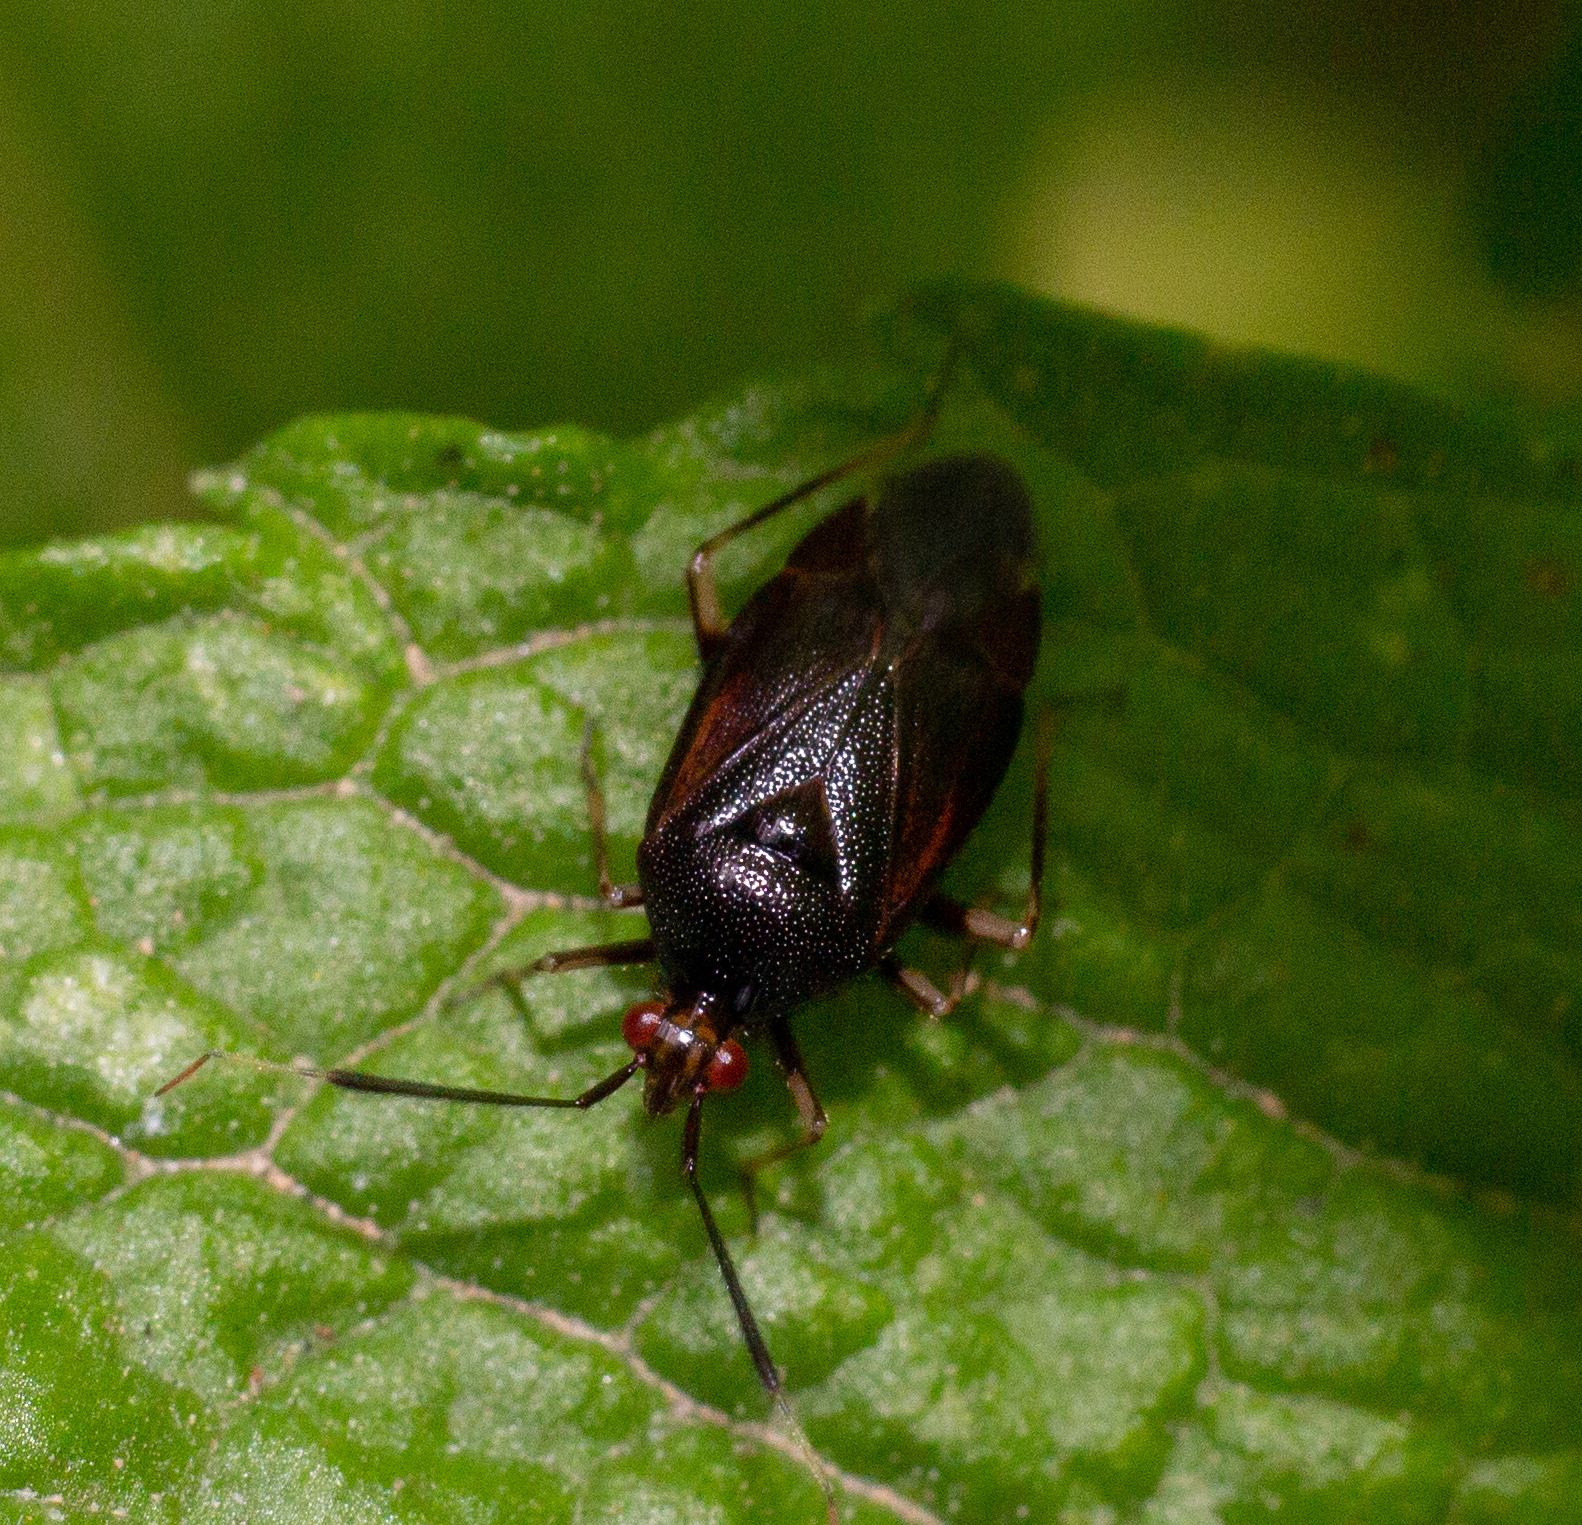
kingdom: Animalia
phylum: Arthropoda
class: Insecta
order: Hemiptera
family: Miridae
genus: Deraeocoris
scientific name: Deraeocoris ruber
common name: Plant bug
